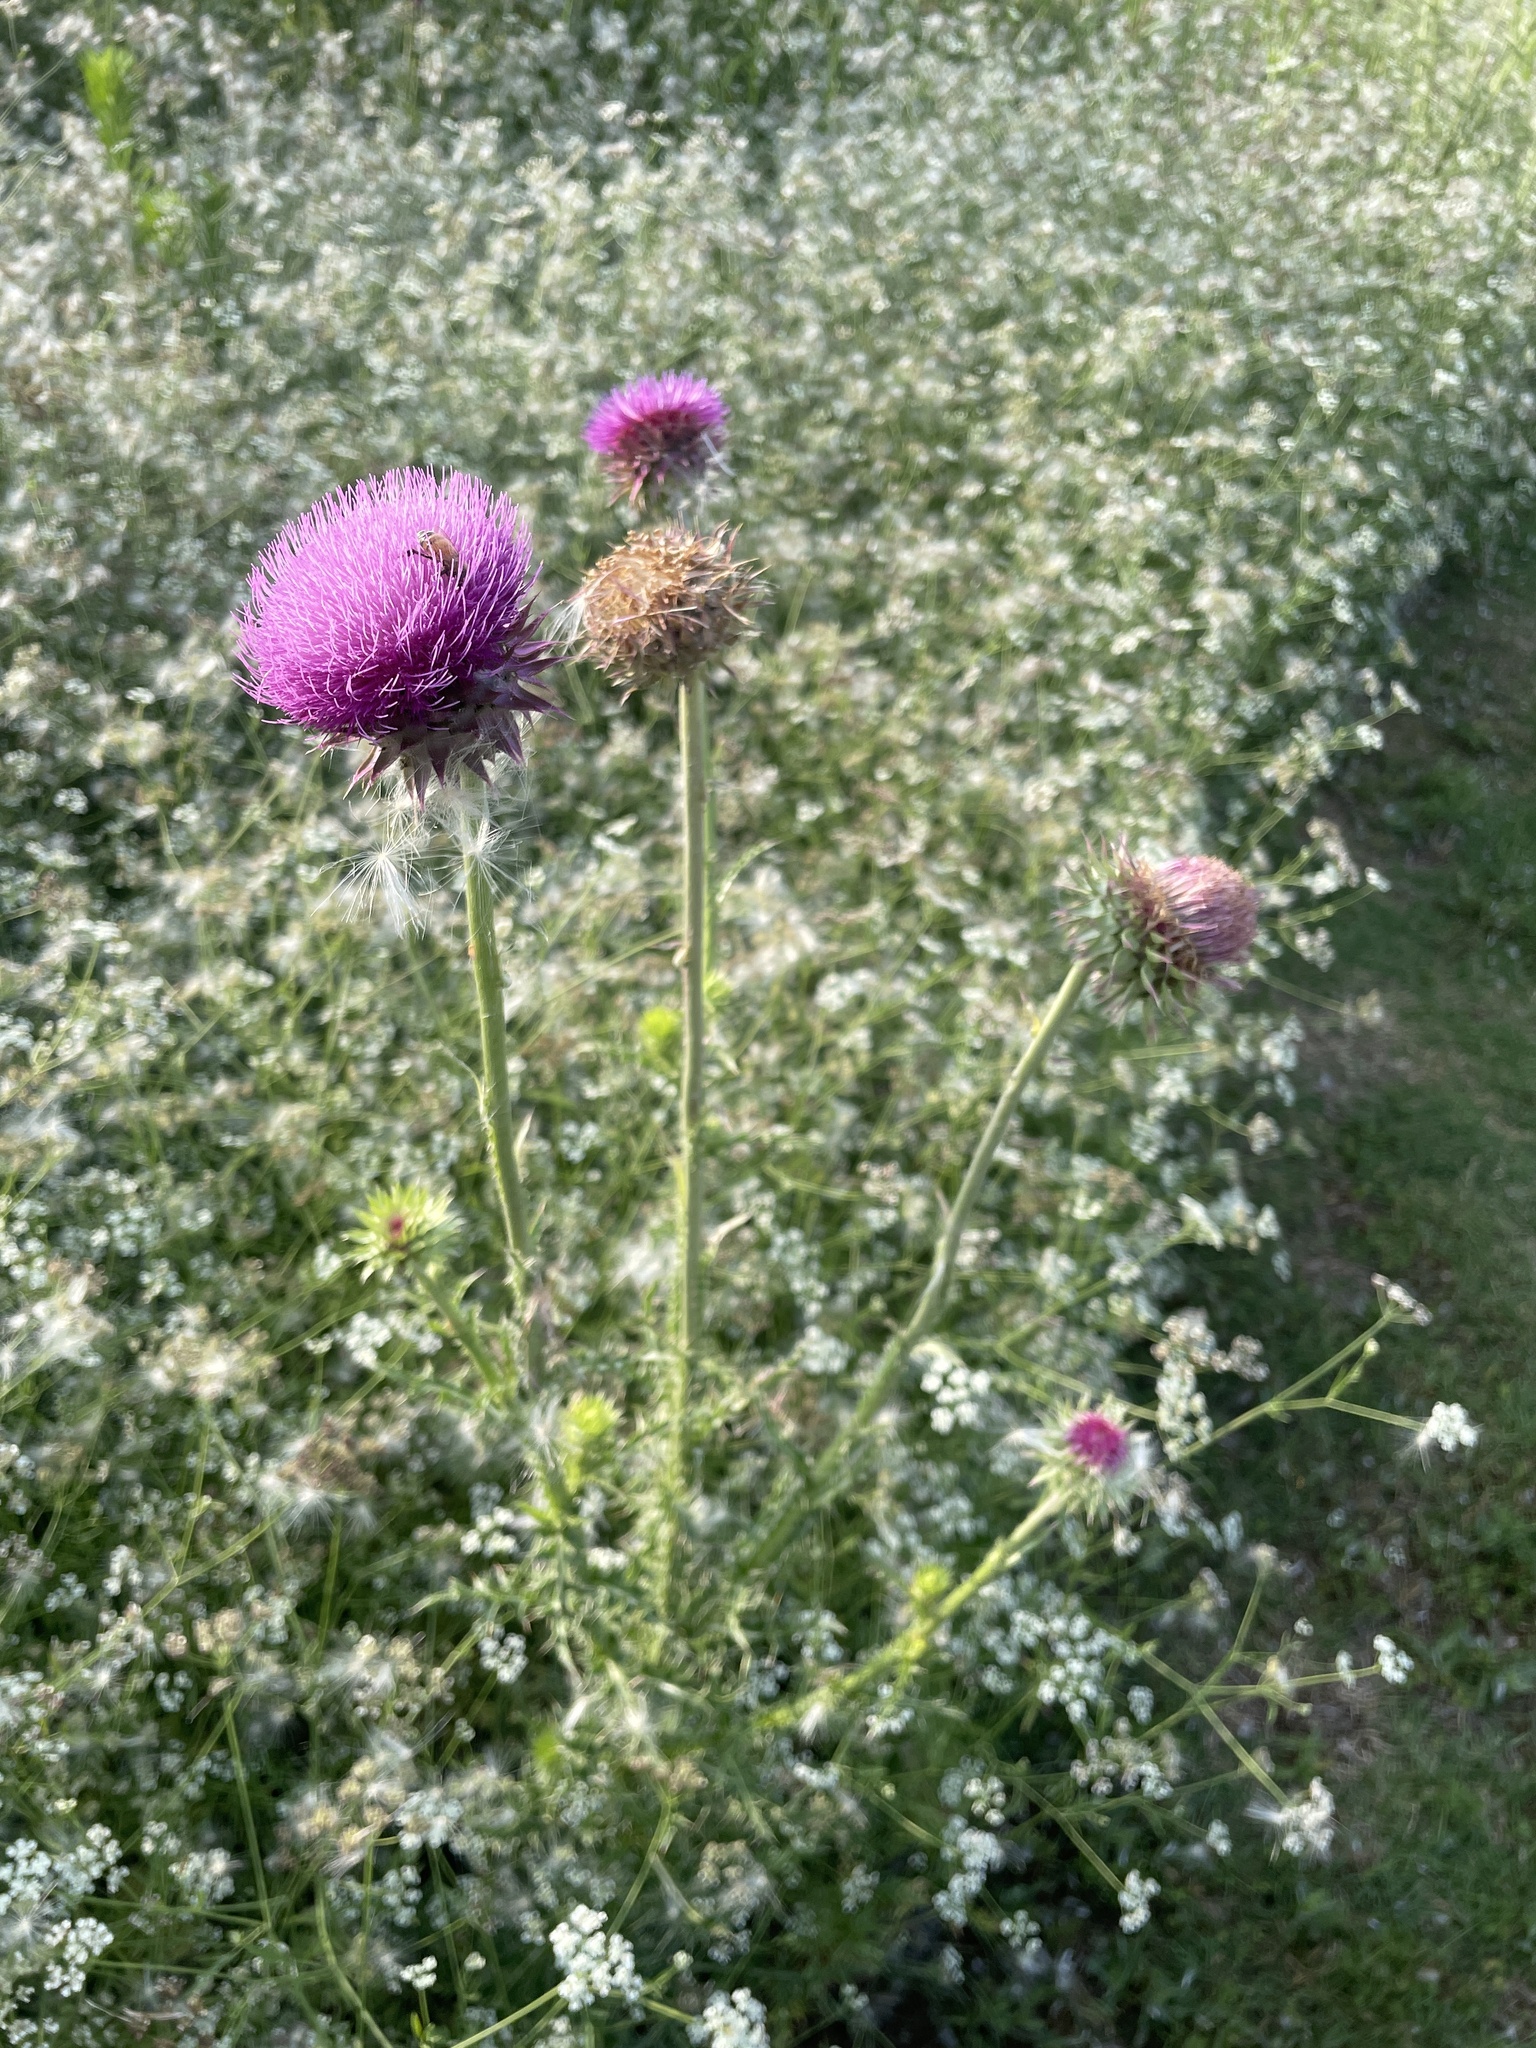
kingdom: Plantae
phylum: Tracheophyta
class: Magnoliopsida
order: Asterales
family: Asteraceae
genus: Carduus
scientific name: Carduus nutans
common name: Musk thistle
